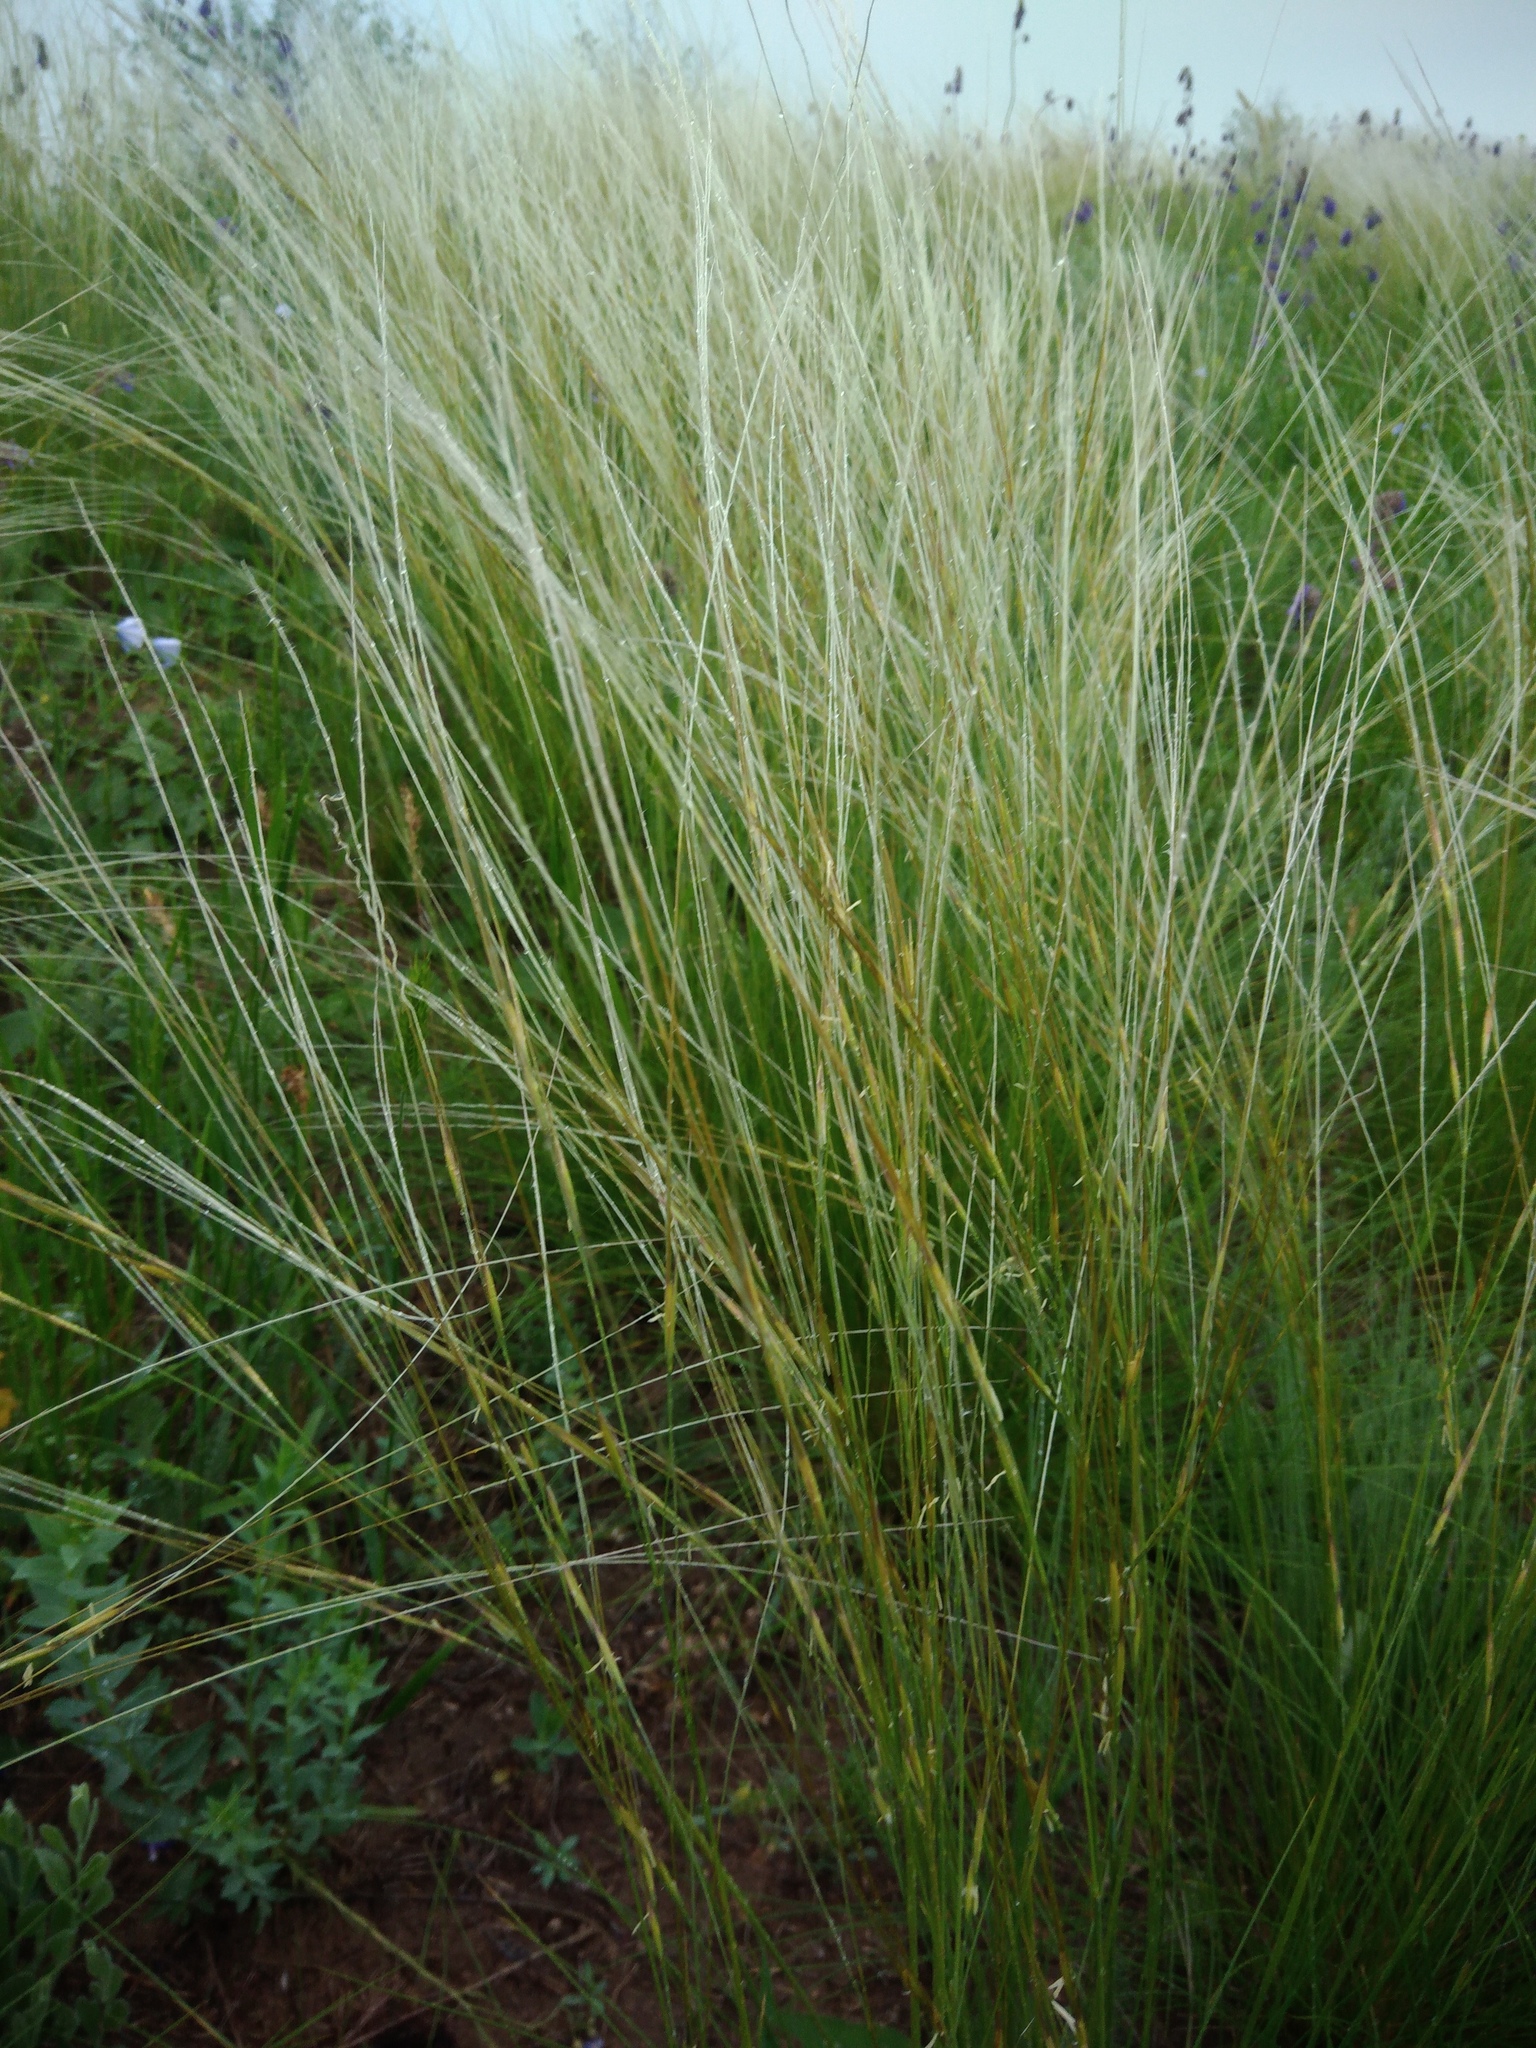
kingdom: Plantae
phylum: Tracheophyta
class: Liliopsida
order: Poales
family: Poaceae
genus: Stipa
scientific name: Stipa lessingiana
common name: Needle grass
